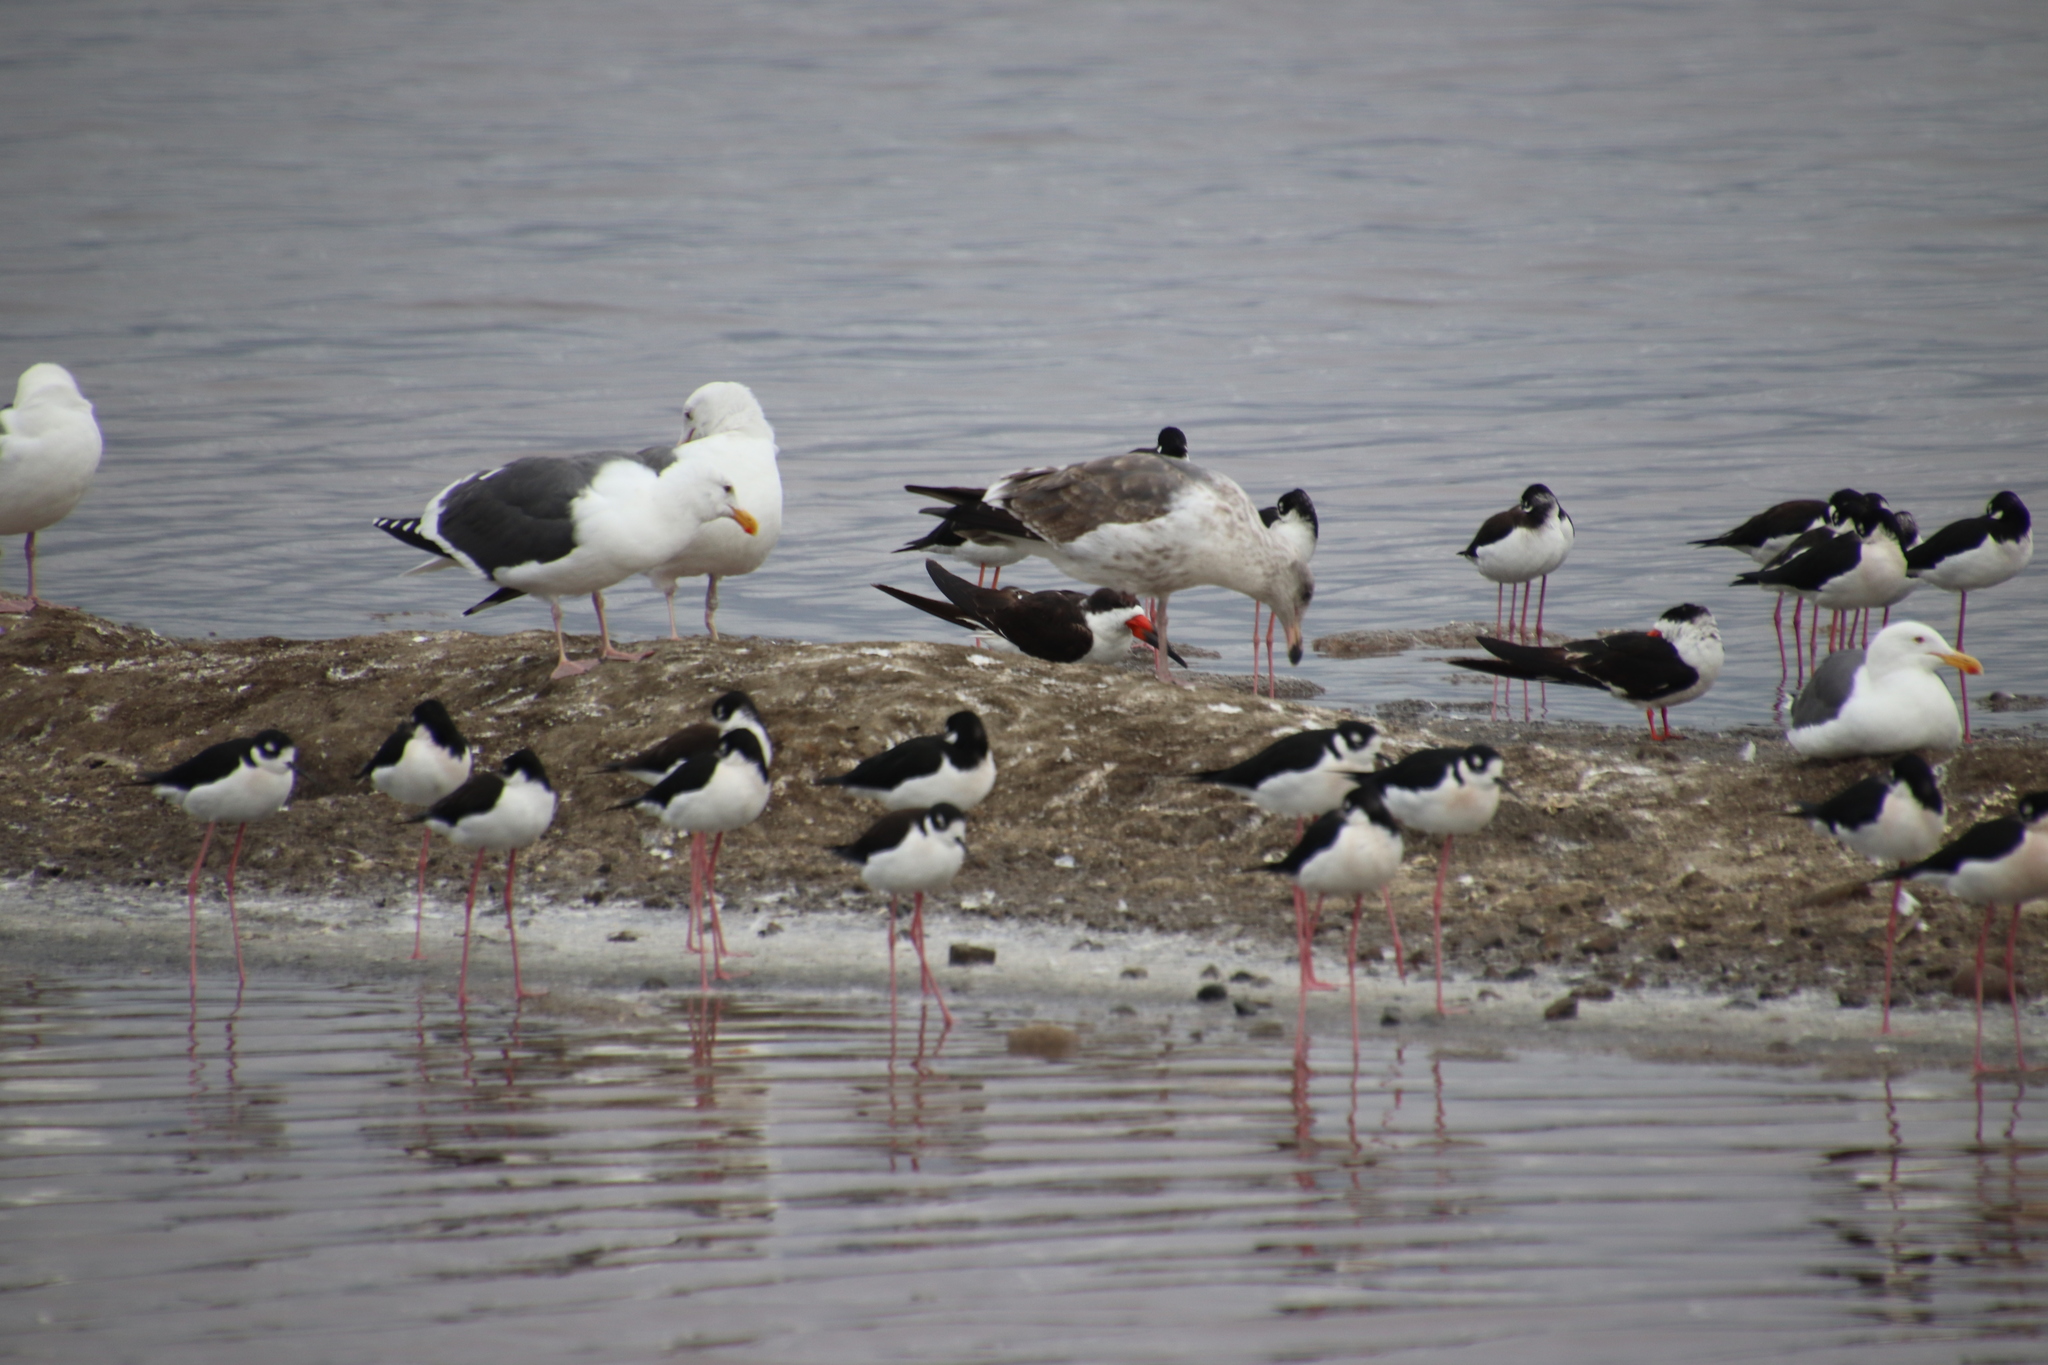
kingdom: Animalia
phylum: Chordata
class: Aves
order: Charadriiformes
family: Recurvirostridae
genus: Himantopus
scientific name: Himantopus mexicanus
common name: Black-necked stilt
